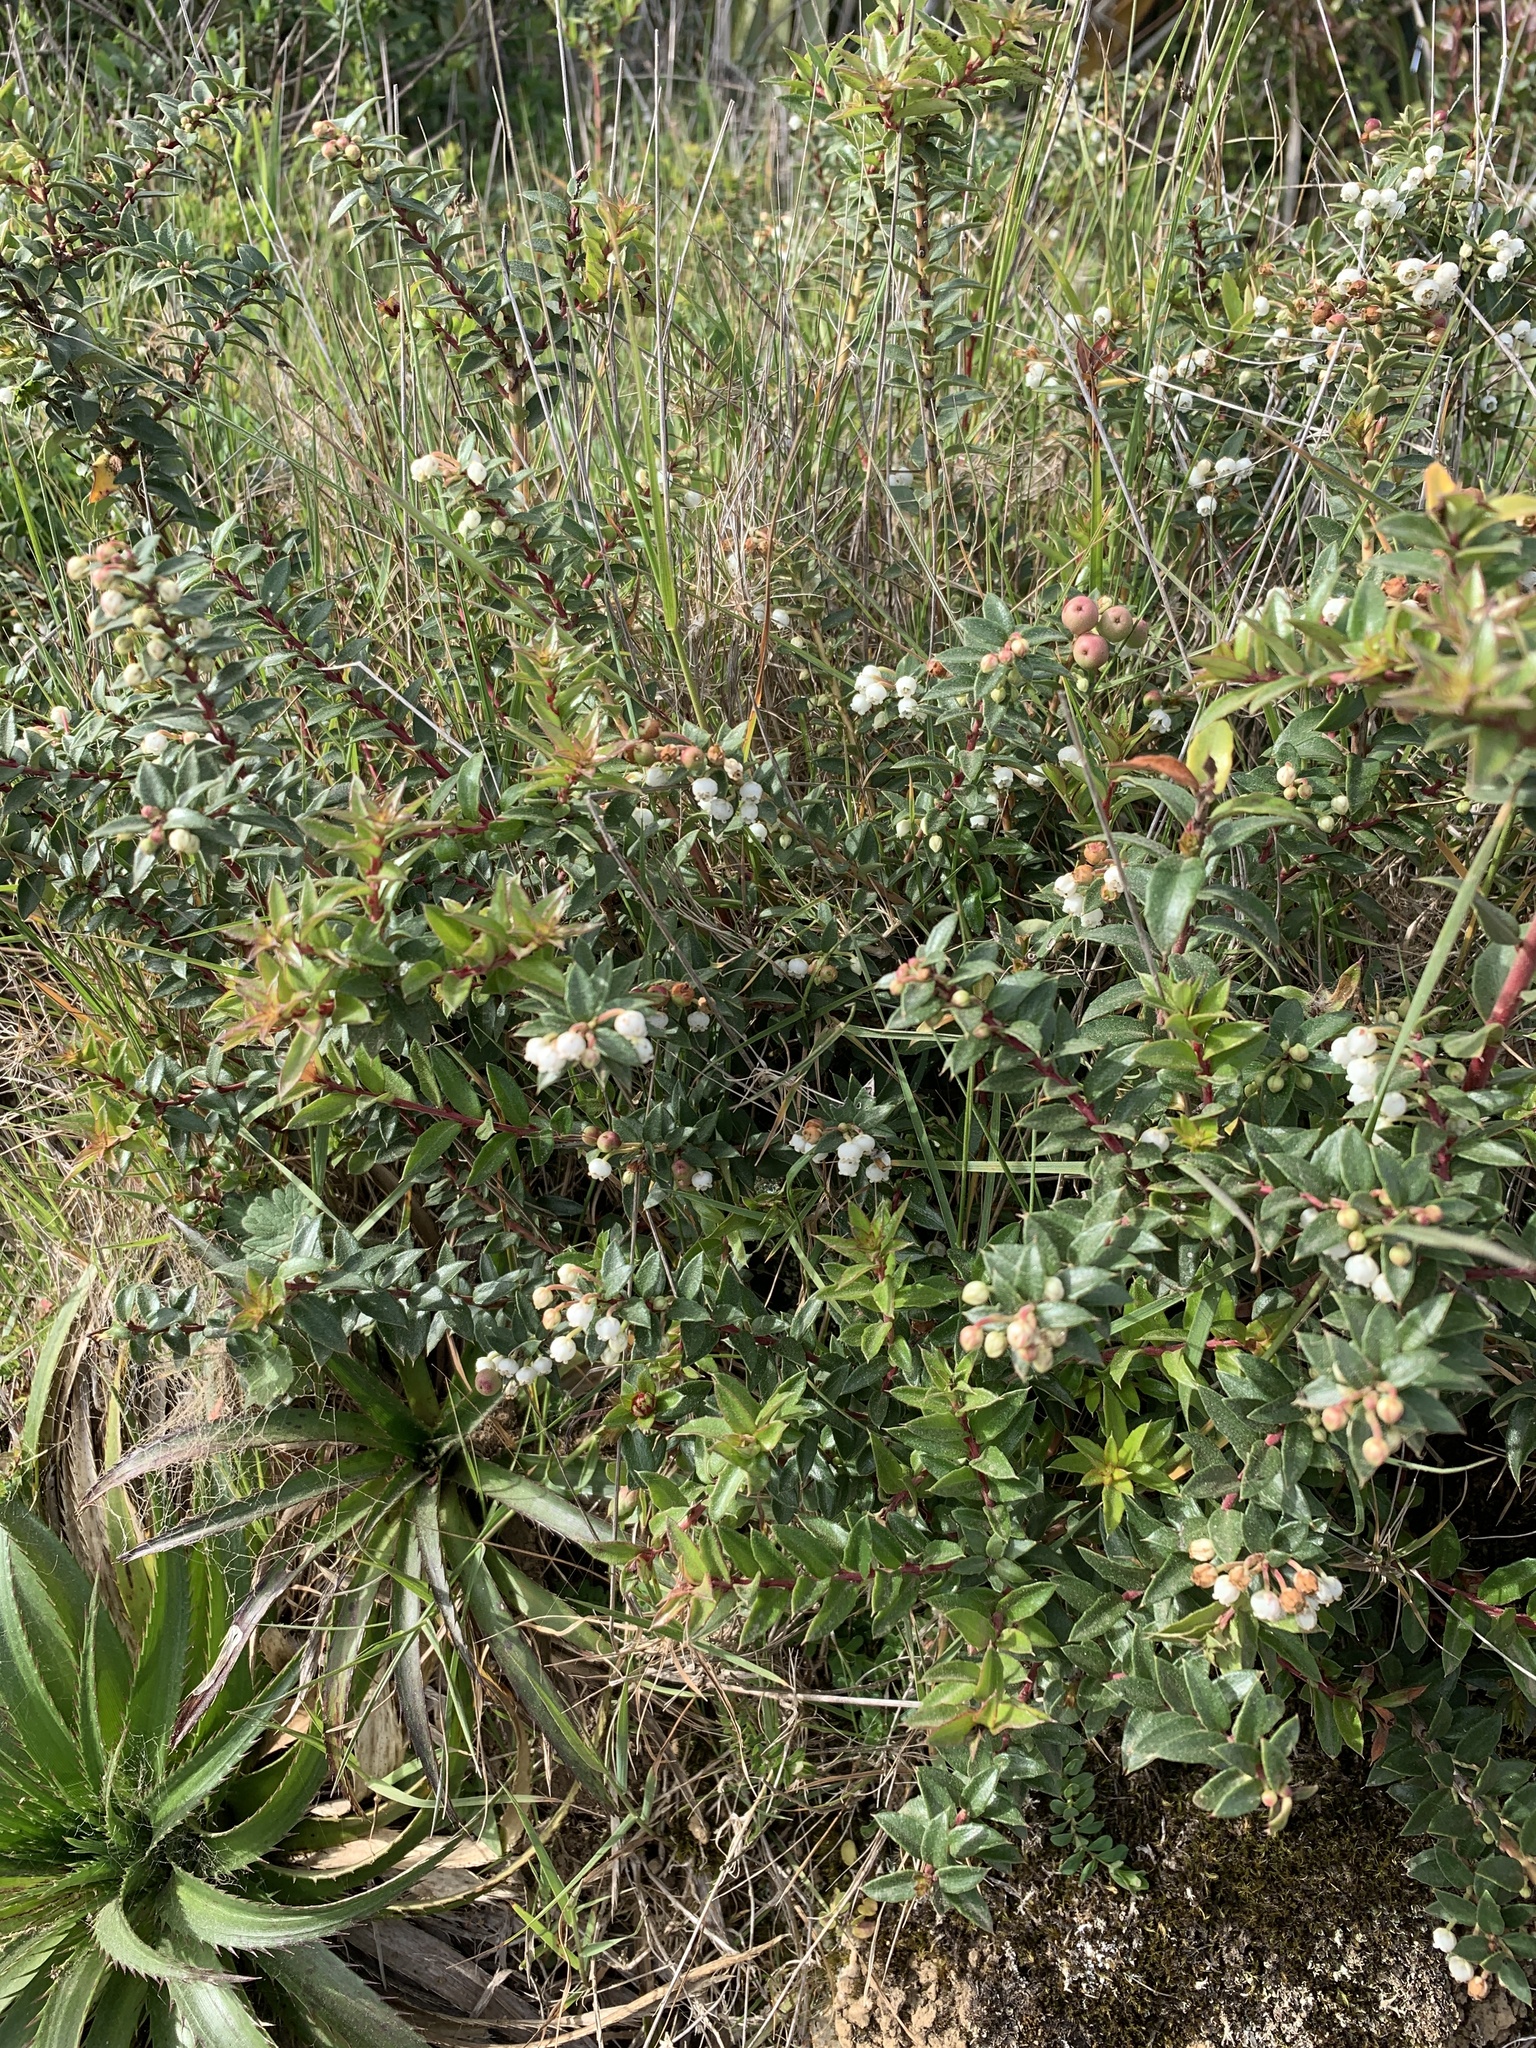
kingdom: Plantae
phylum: Tracheophyta
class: Magnoliopsida
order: Ericales
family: Ericaceae
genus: Gaultheria
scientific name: Gaultheria insana
